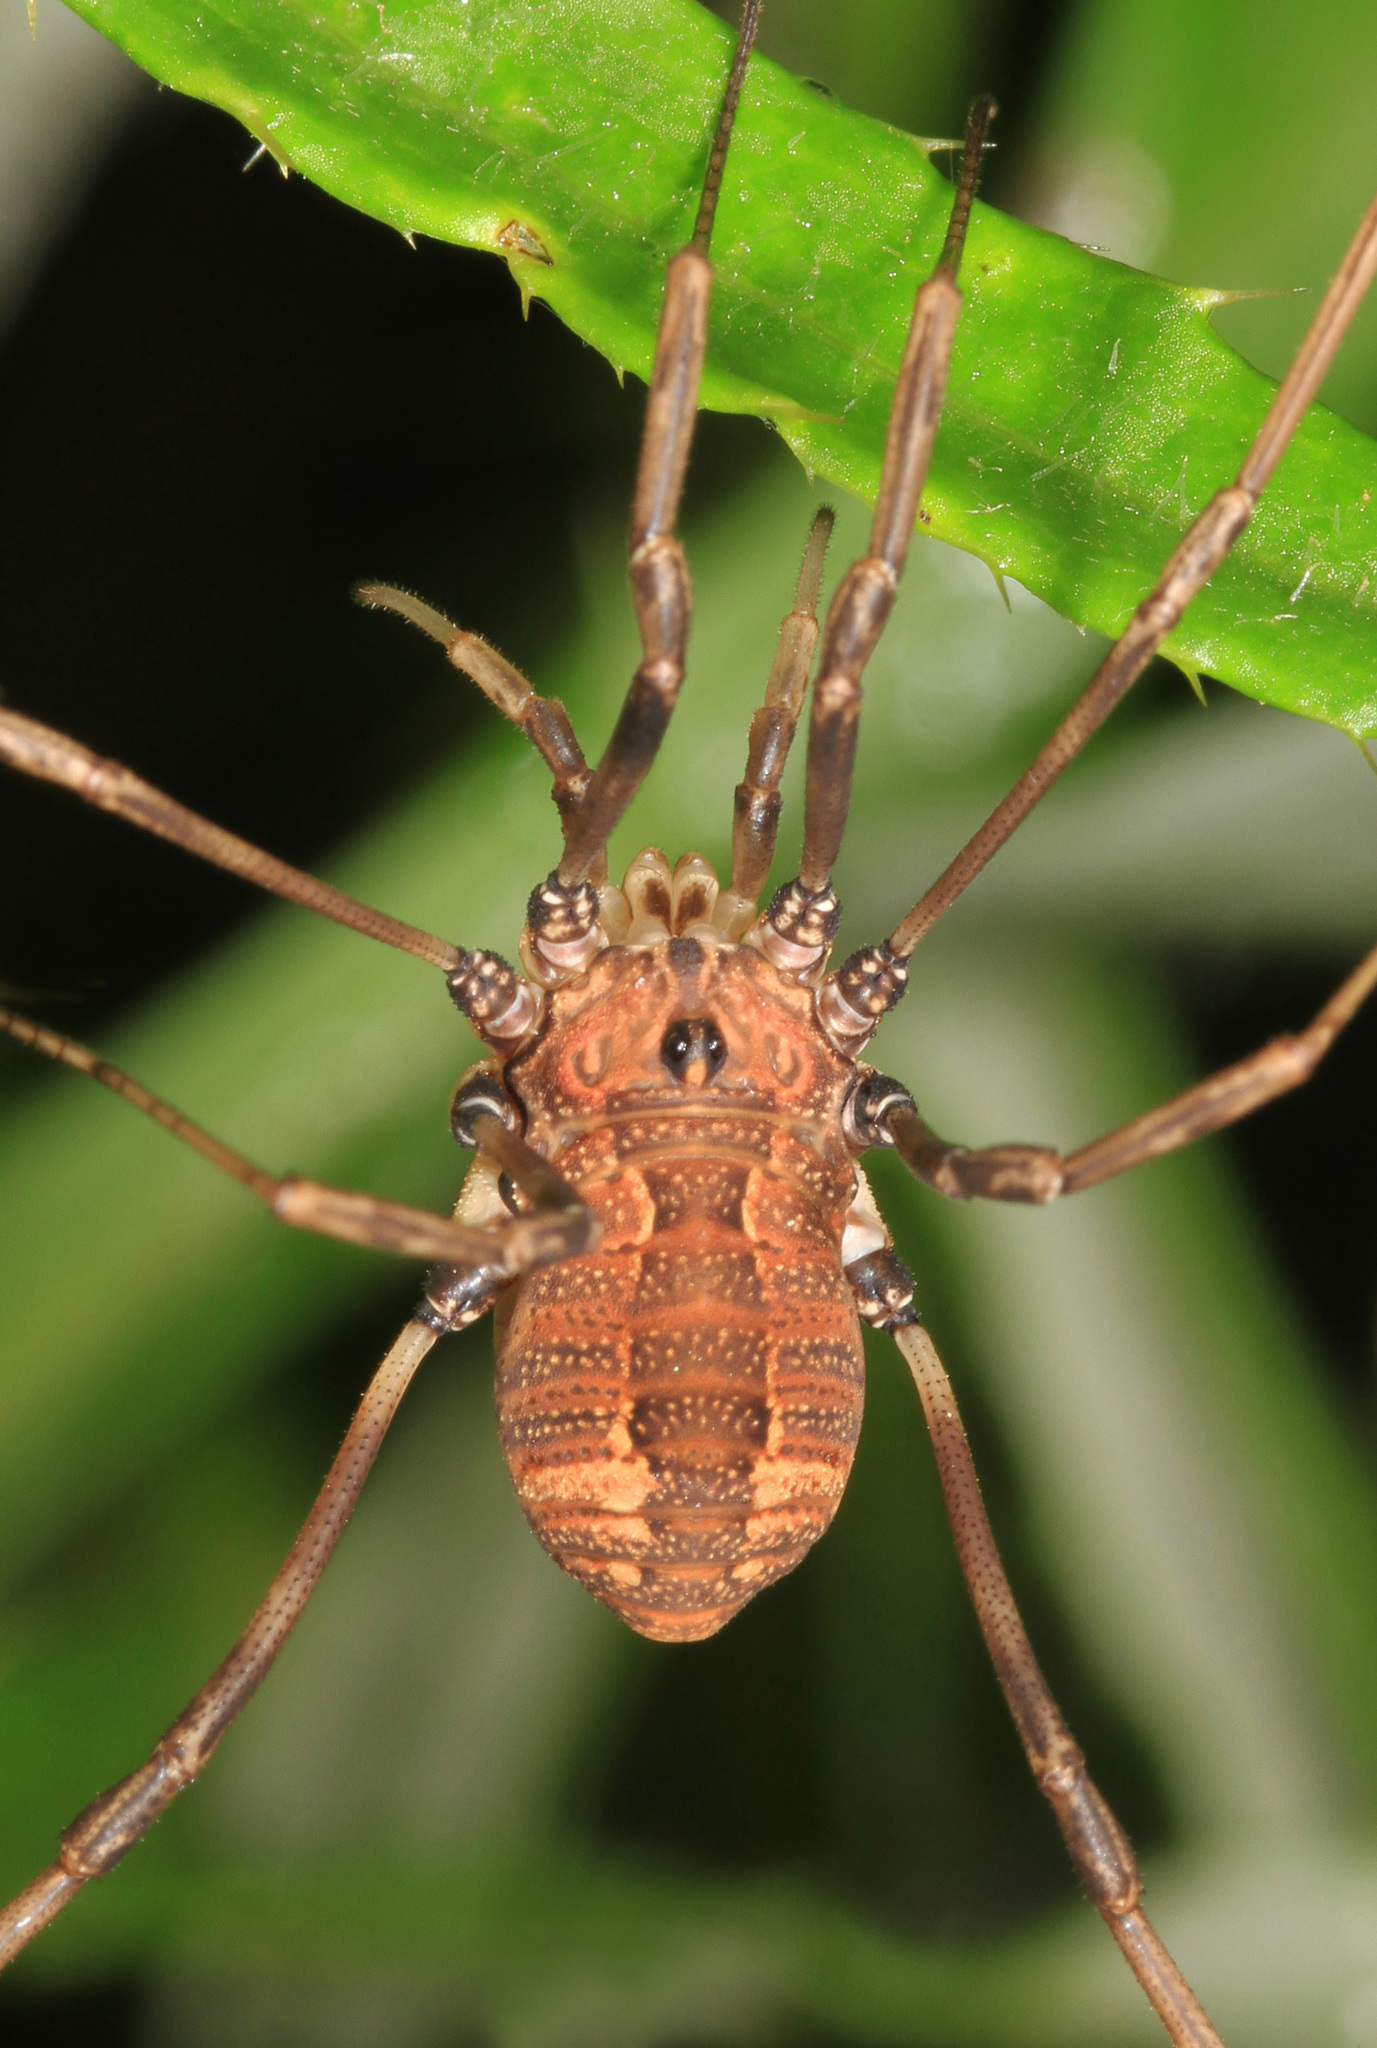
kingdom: Animalia
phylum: Arthropoda
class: Arachnida
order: Opiliones
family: Sclerosomatidae
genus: Hadrobunus
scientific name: Hadrobunus maculosus
